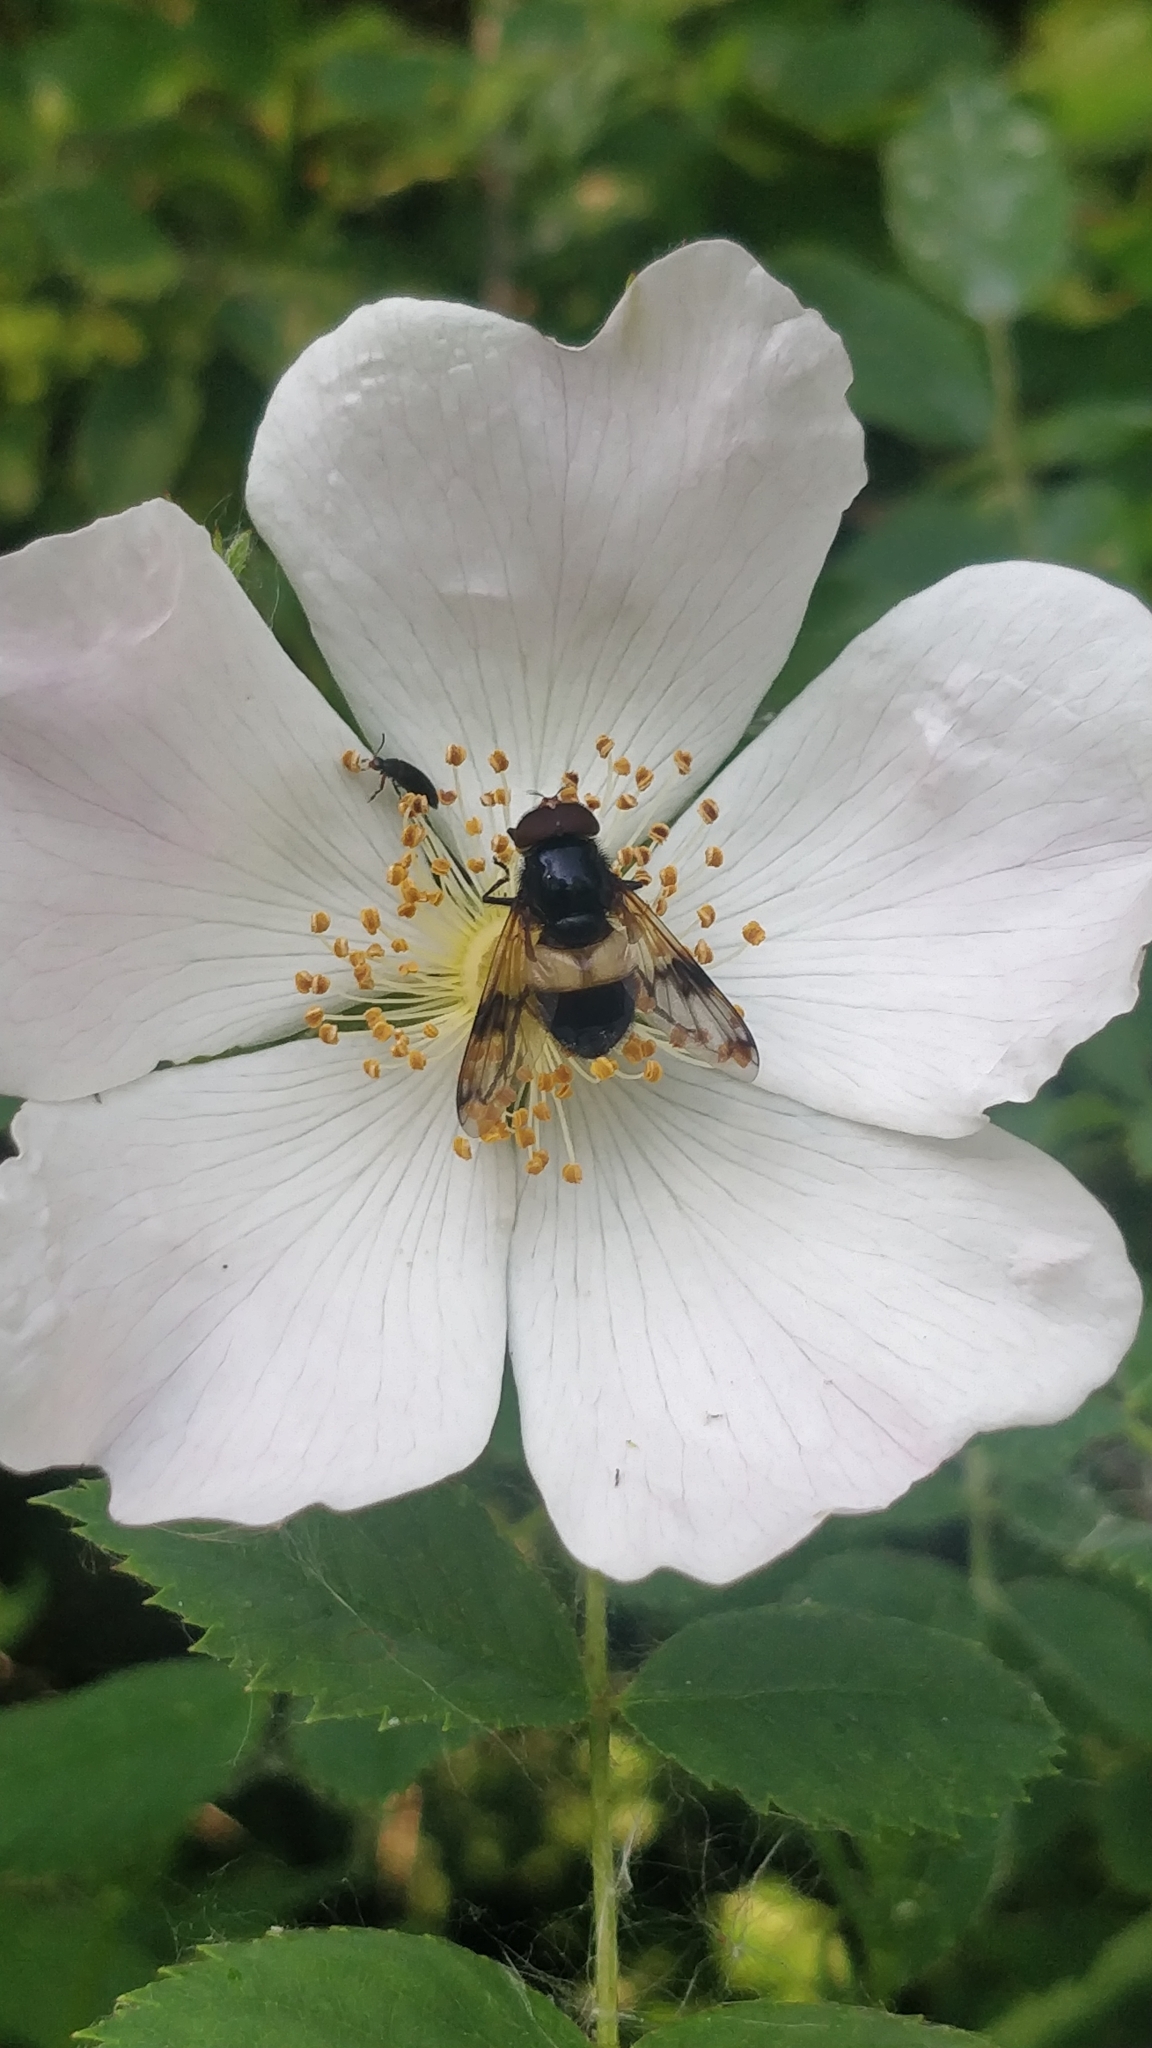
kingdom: Animalia
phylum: Arthropoda
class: Insecta
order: Diptera
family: Syrphidae
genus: Volucella
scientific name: Volucella pellucens
